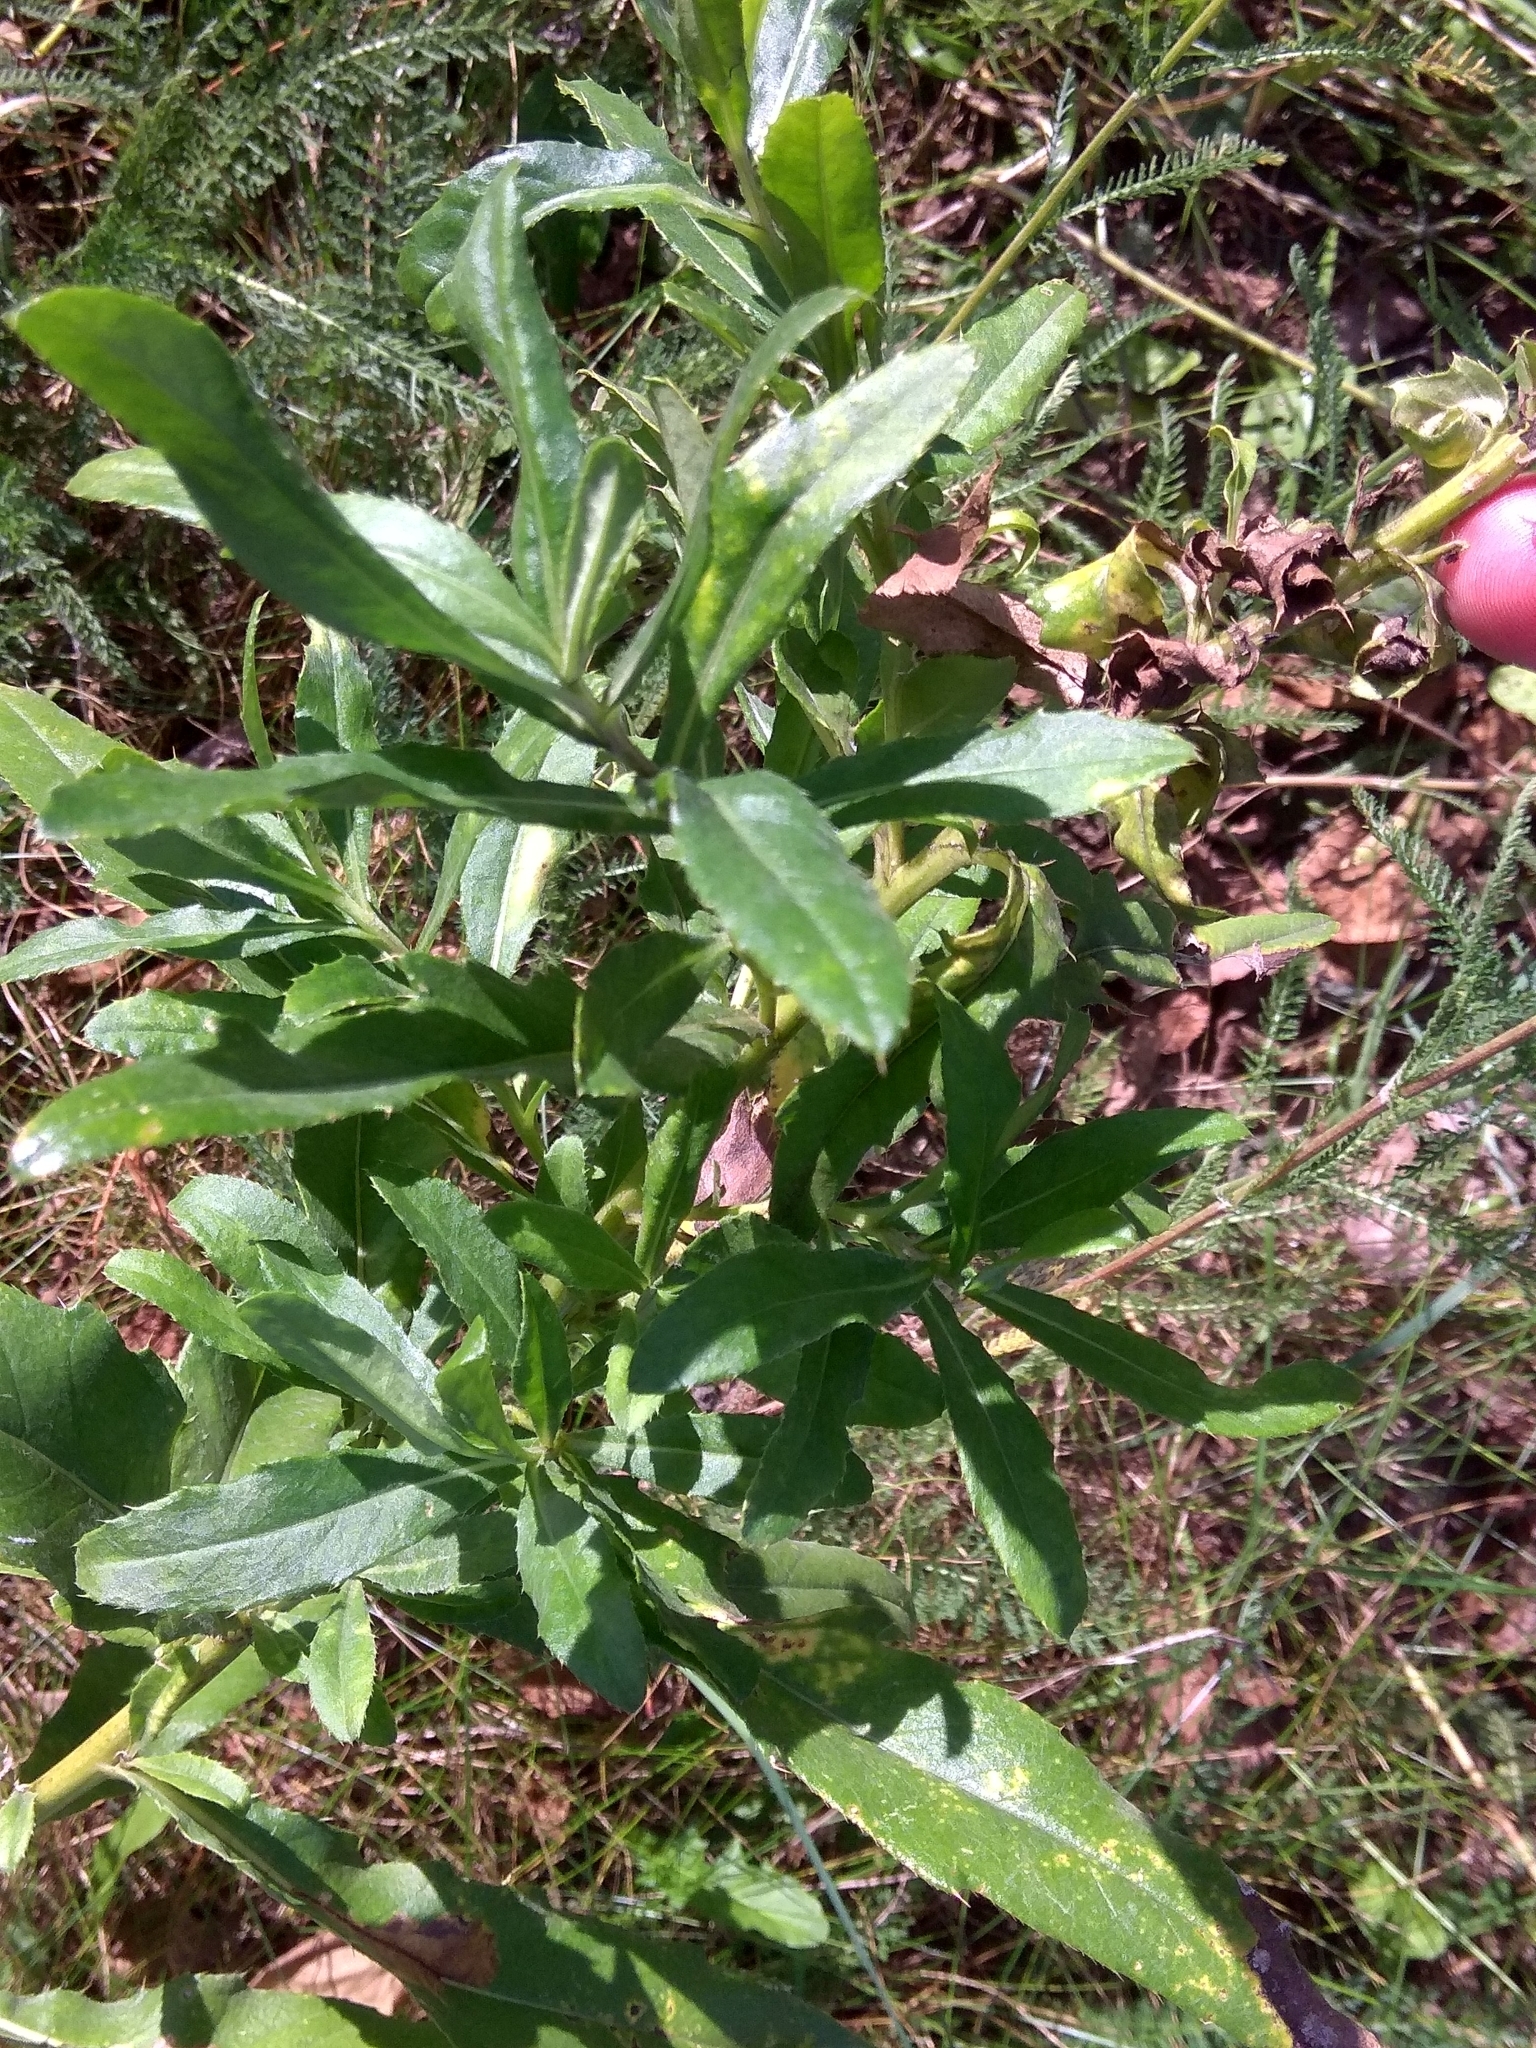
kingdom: Plantae
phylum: Tracheophyta
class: Magnoliopsida
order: Asterales
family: Asteraceae
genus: Cirsium
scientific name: Cirsium arvense
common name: Creeping thistle
